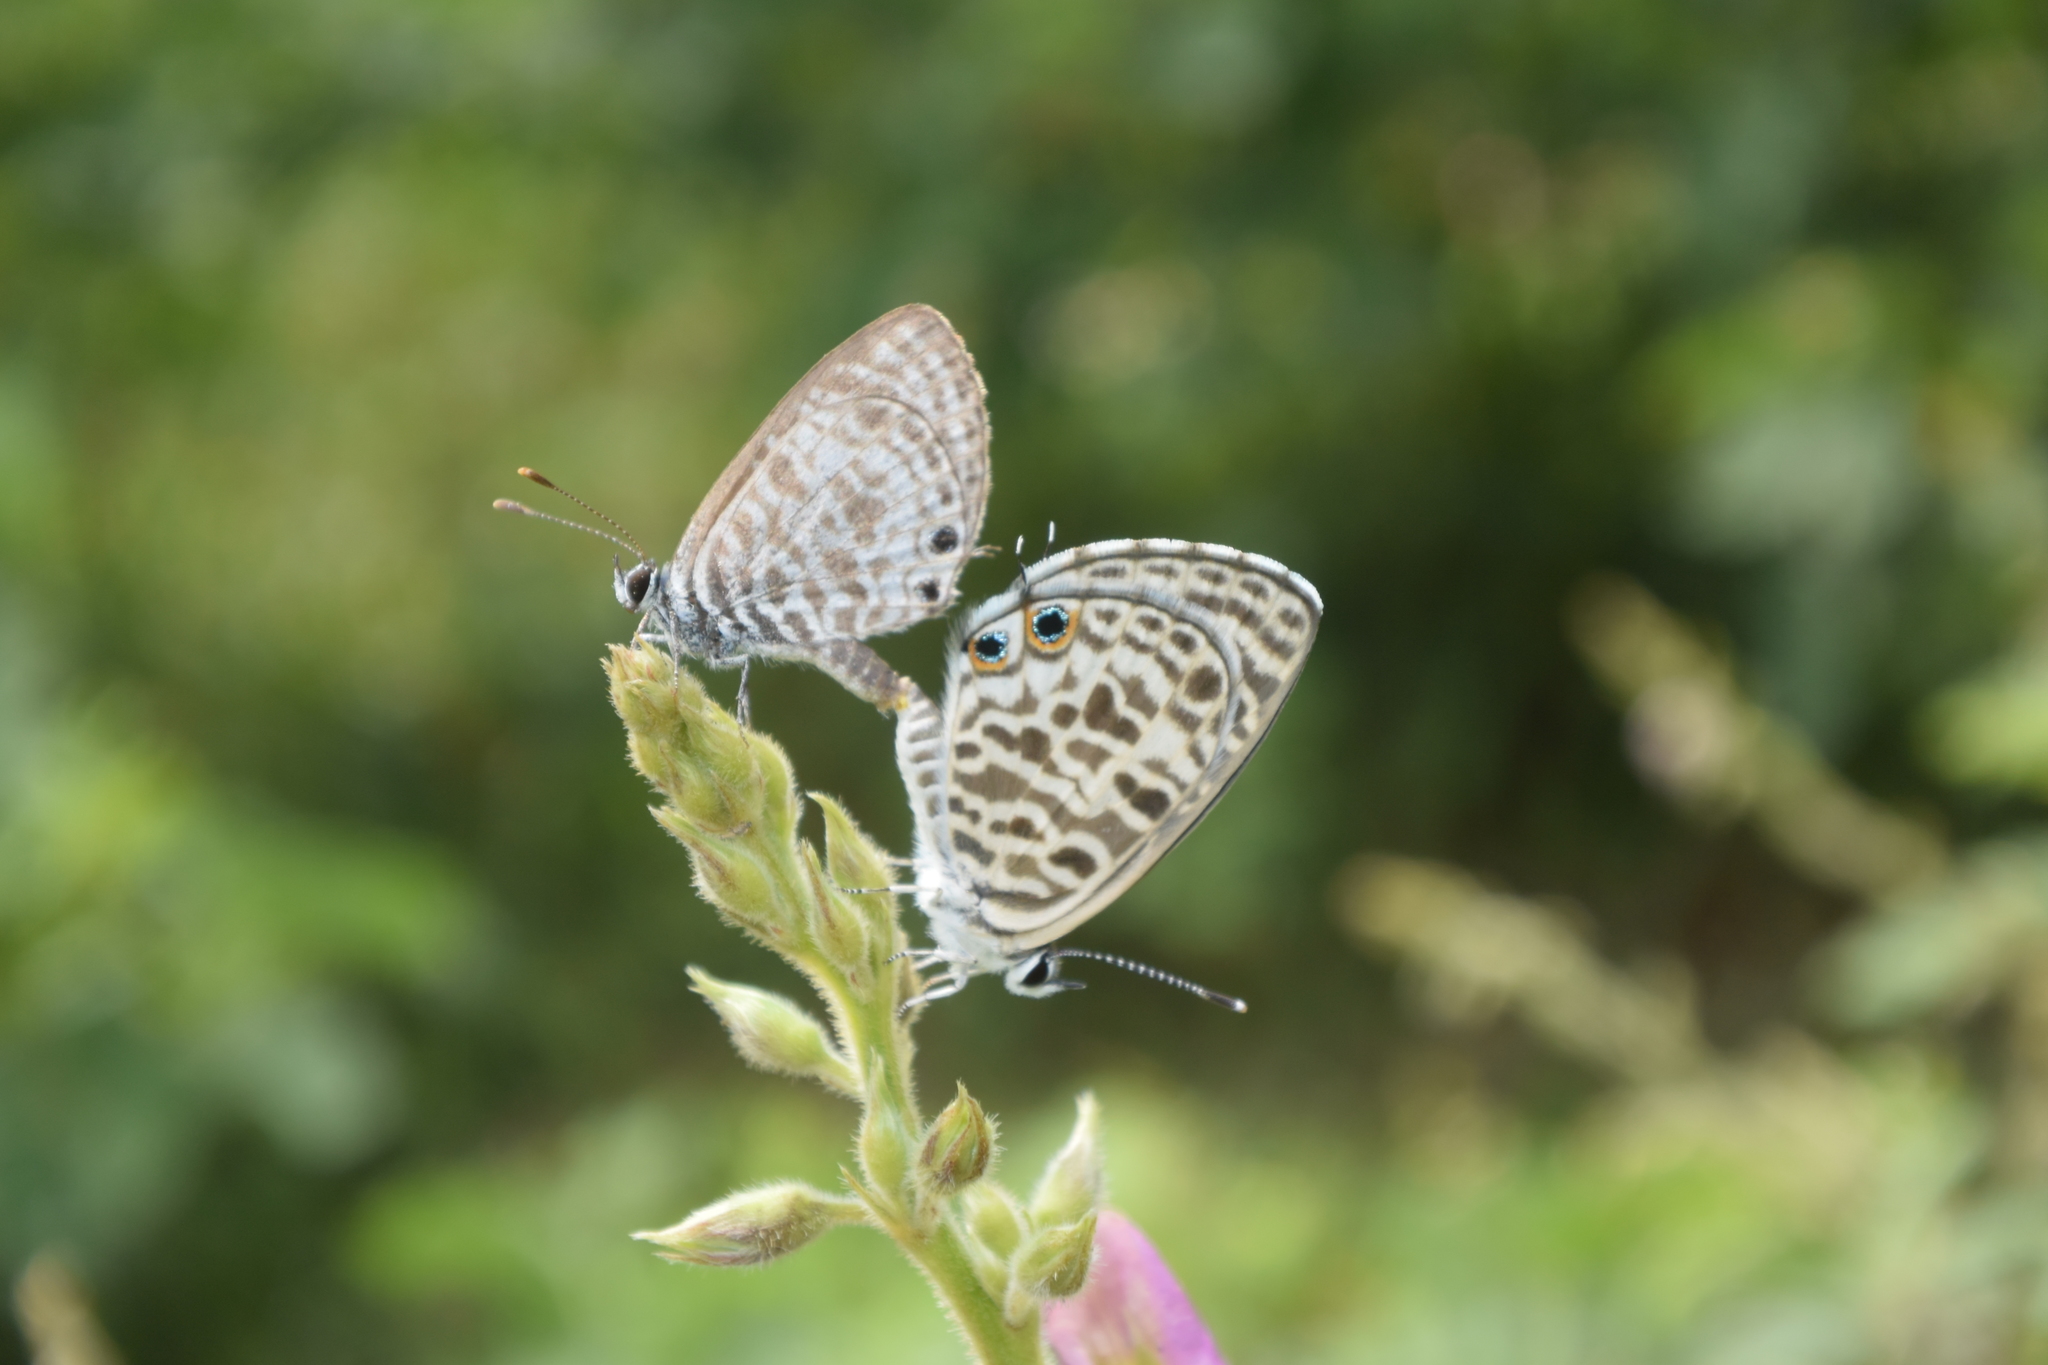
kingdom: Animalia
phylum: Arthropoda
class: Insecta
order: Lepidoptera
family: Lycaenidae
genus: Leptotes
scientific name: Leptotes plinius
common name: Zebra blue
